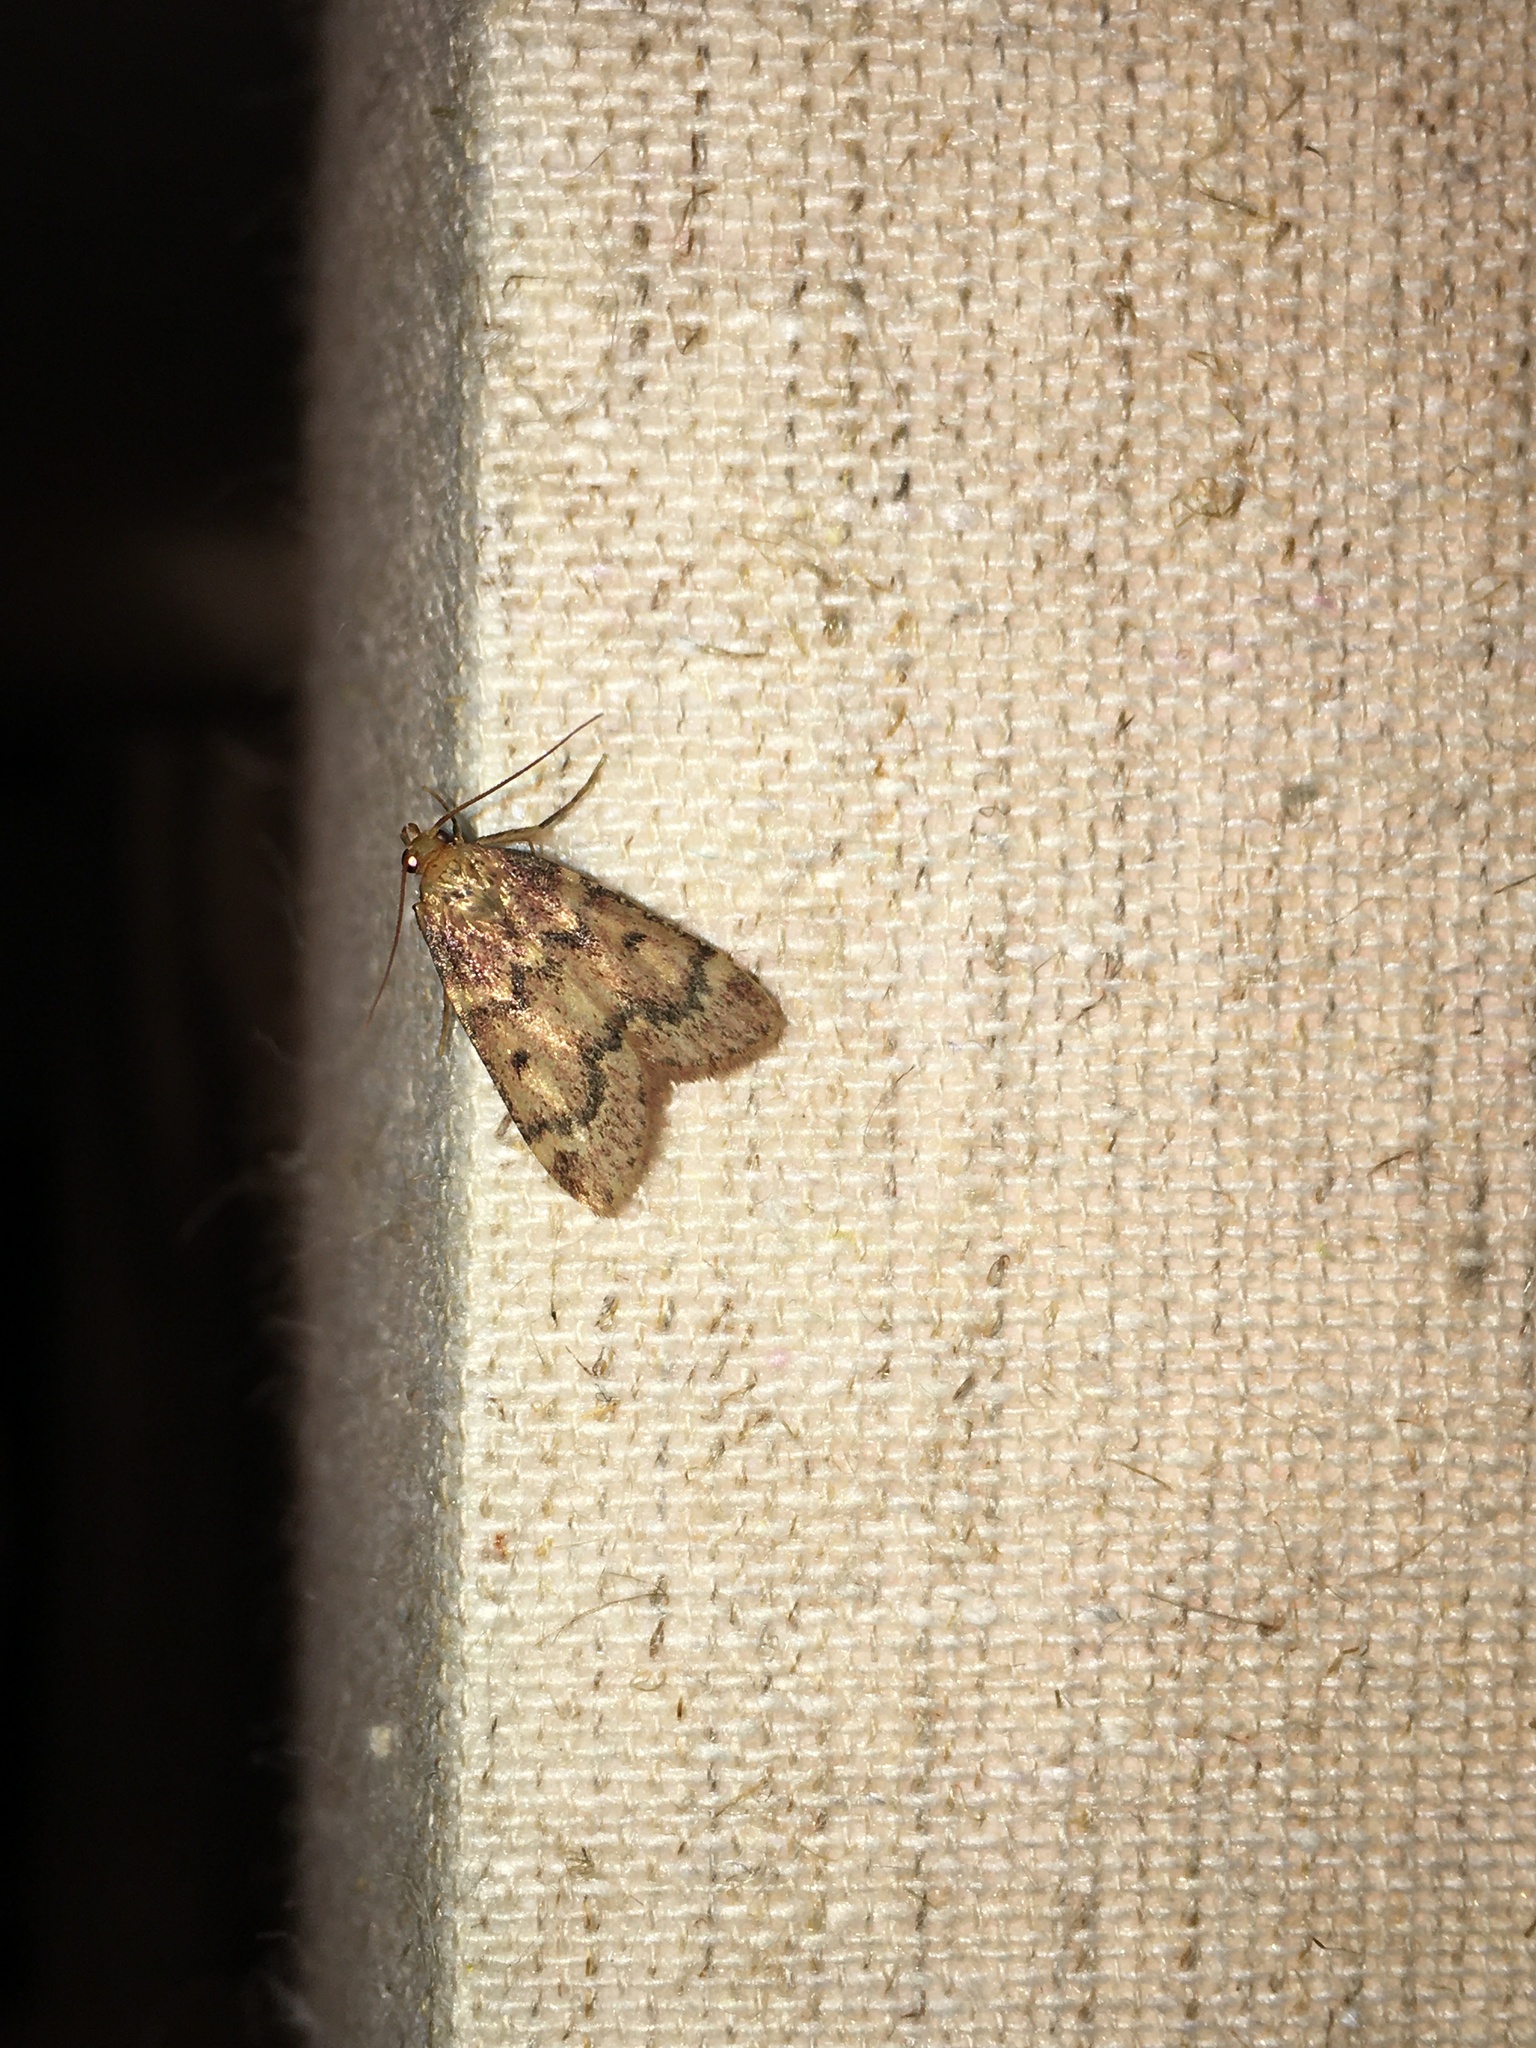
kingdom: Animalia
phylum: Arthropoda
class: Insecta
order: Lepidoptera
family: Pyralidae
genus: Aglossa
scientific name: Aglossa disciferalis
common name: Pink-masked pyralid moth
